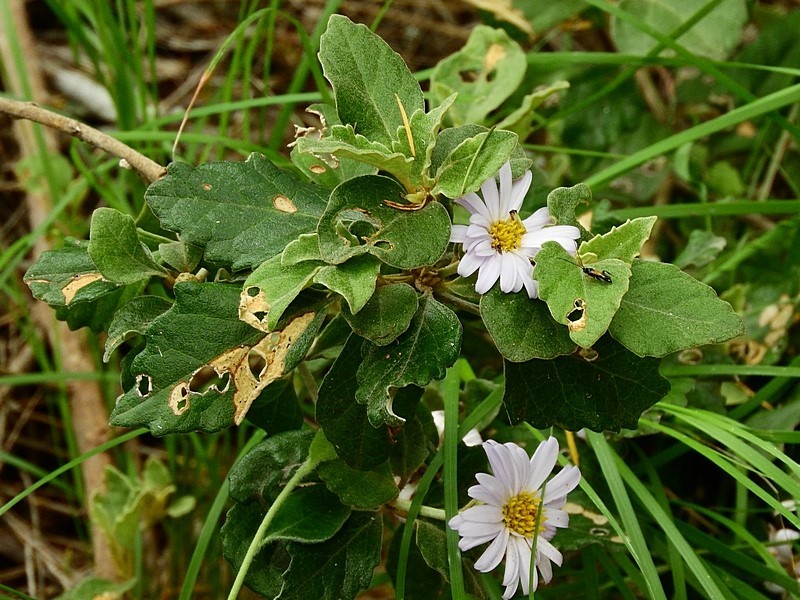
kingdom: Plantae
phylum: Tracheophyta
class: Magnoliopsida
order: Asterales
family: Asteraceae
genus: Olearia
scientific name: Olearia tomentosa
